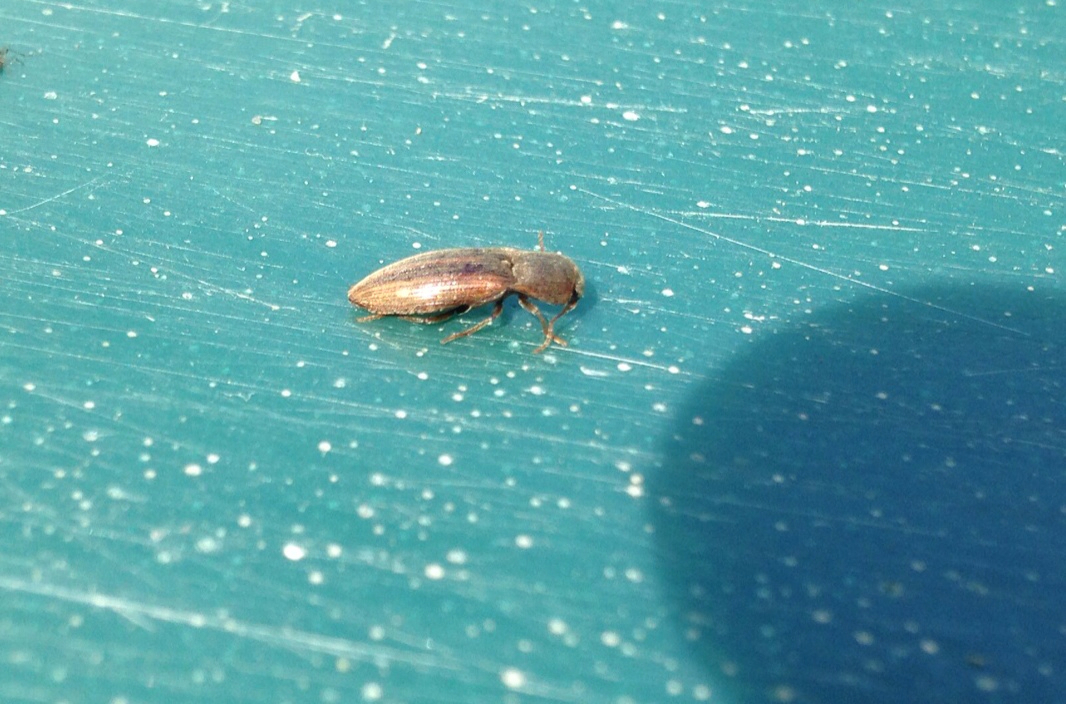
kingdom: Animalia
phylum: Arthropoda
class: Insecta
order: Coleoptera
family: Elateridae
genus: Agriotes
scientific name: Agriotes lineatus
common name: Lined click beetle
